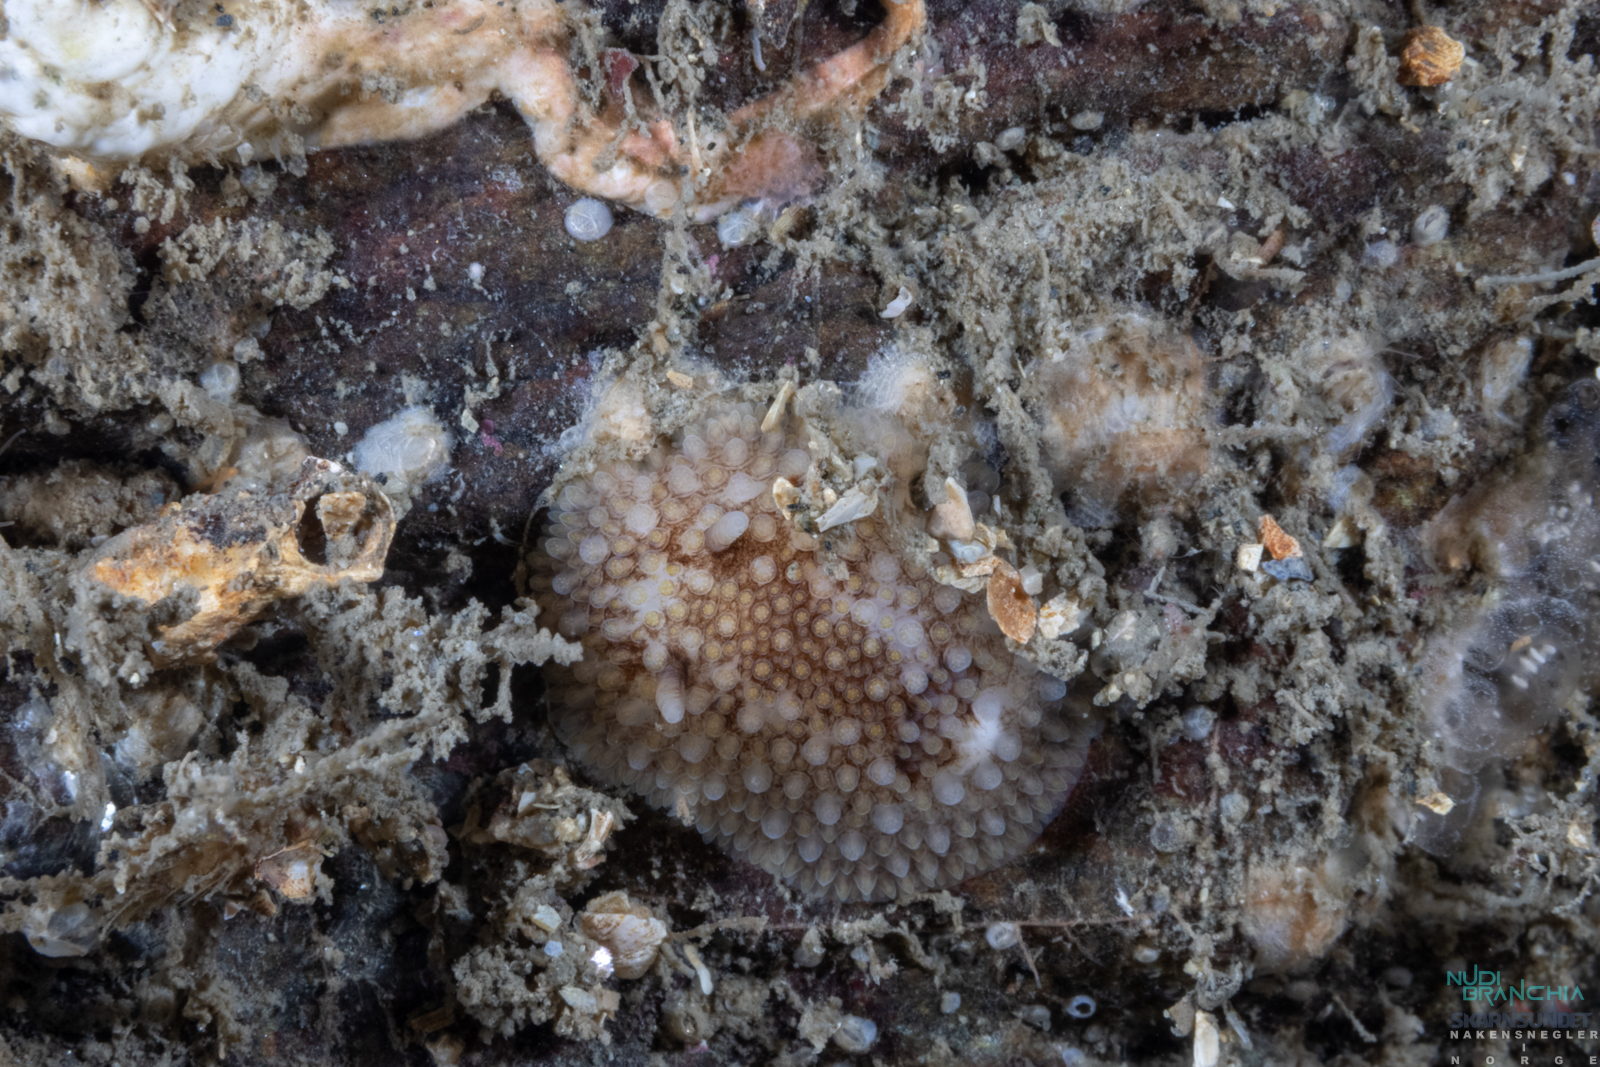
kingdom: Animalia
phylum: Mollusca
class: Gastropoda
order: Nudibranchia
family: Onchidorididae
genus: Onchidoris
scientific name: Onchidoris bilamellata
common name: Barnacle-eating onchidoris
